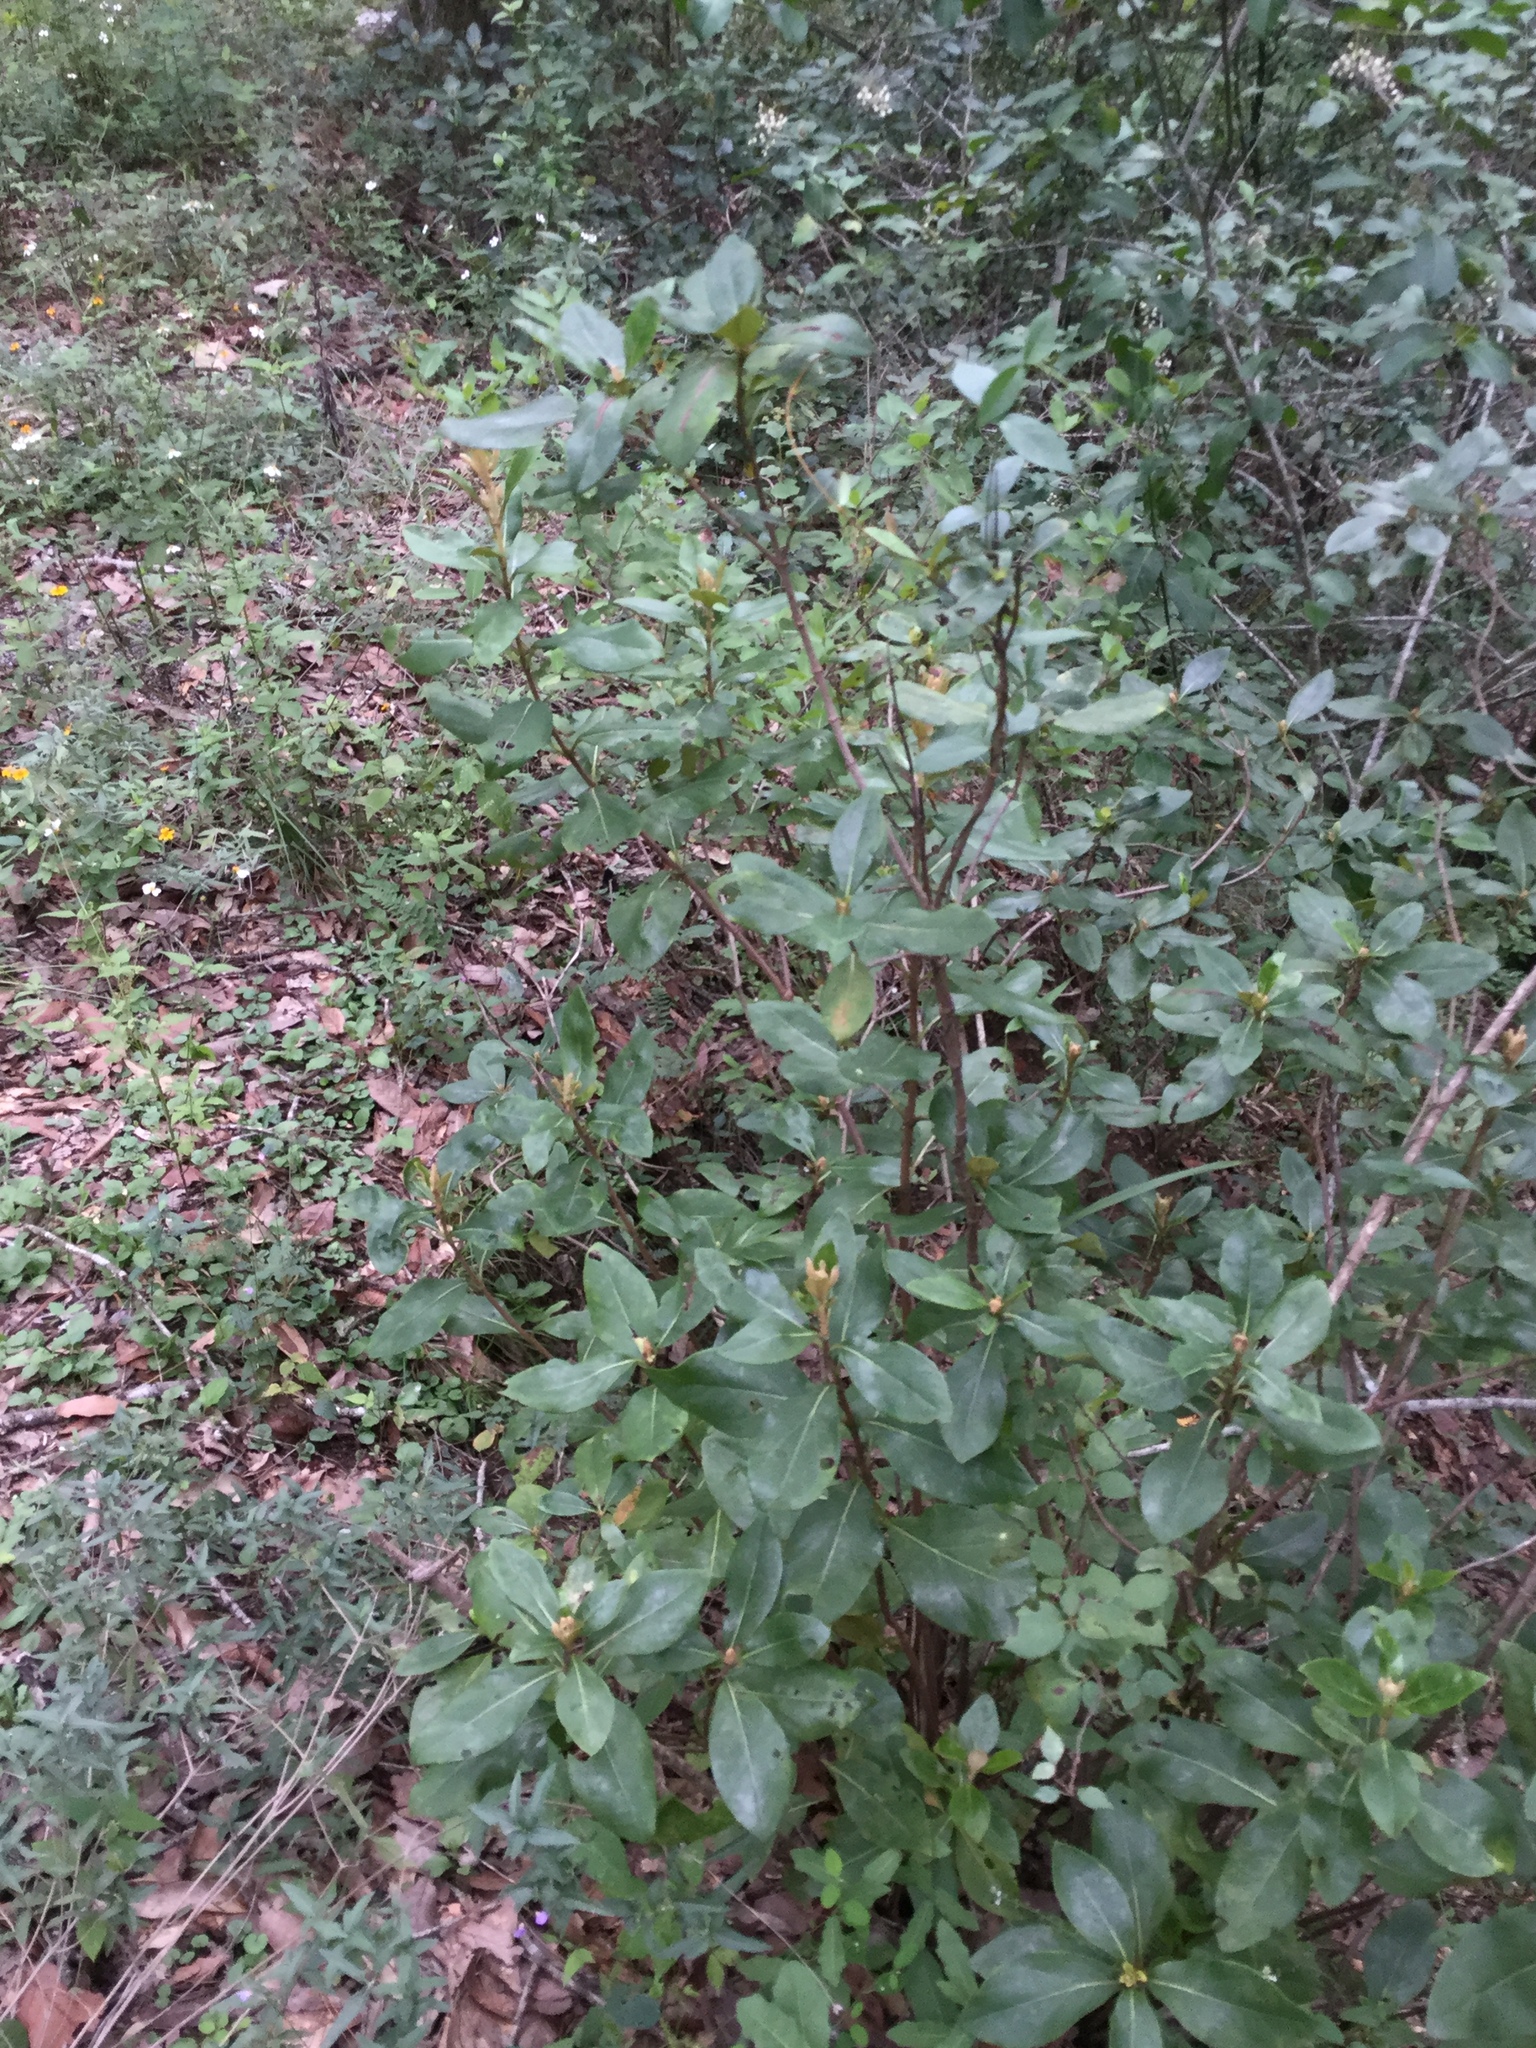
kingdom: Plantae
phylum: Tracheophyta
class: Magnoliopsida
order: Asterales
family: Asteraceae
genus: Ageratina
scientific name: Ageratina viburnoides
